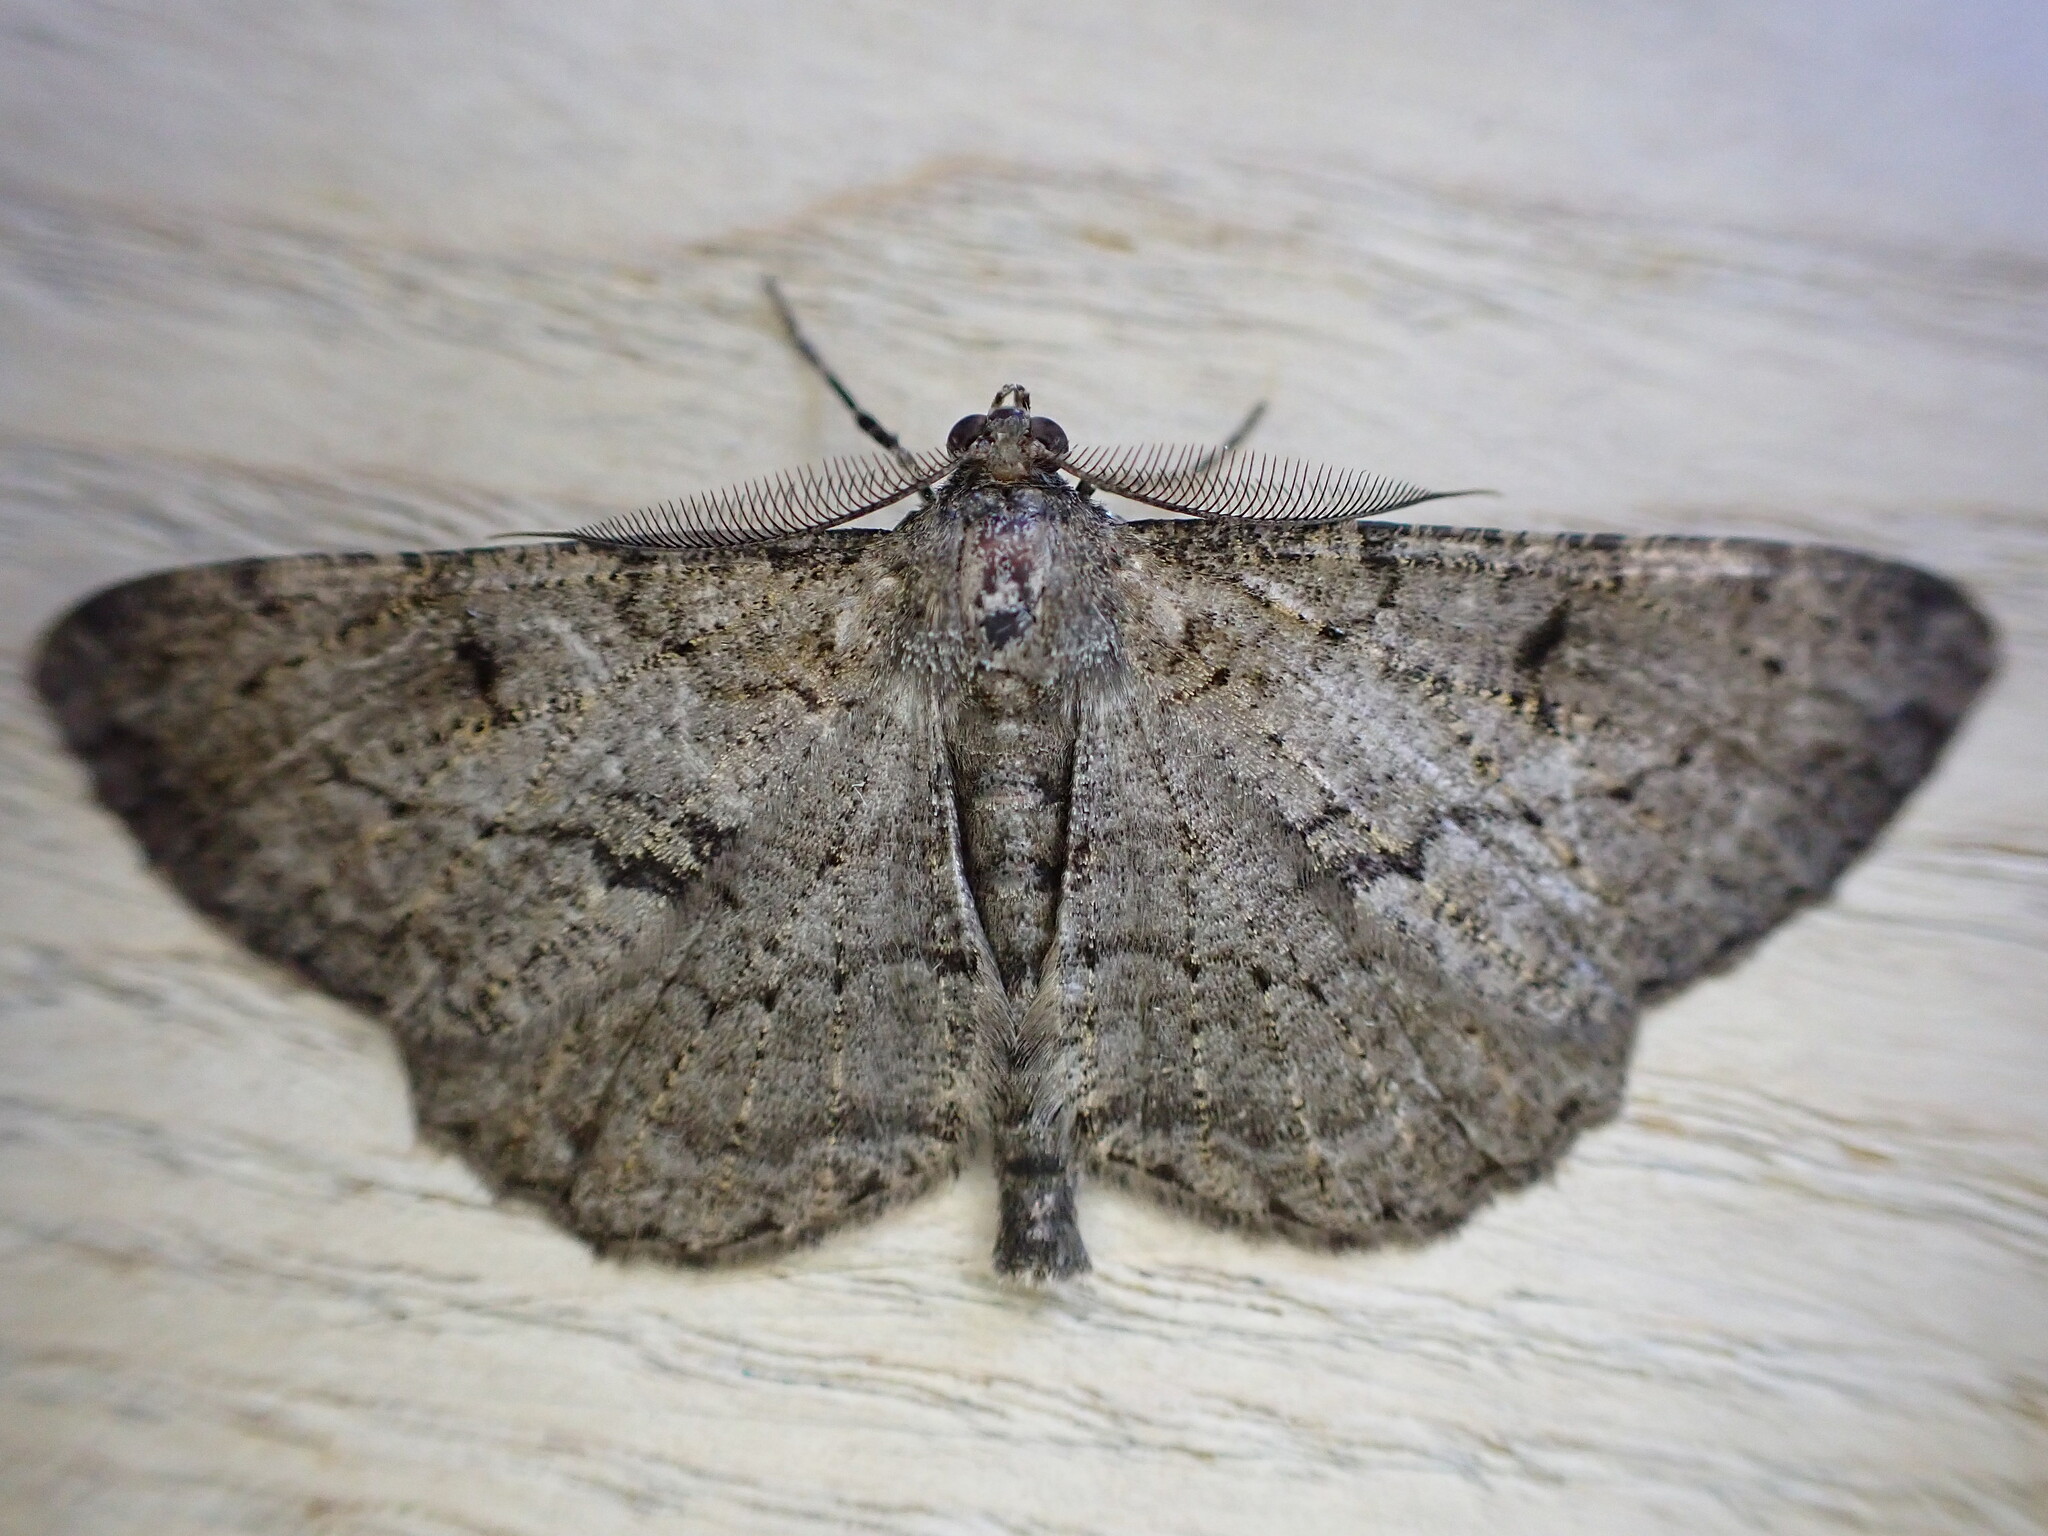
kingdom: Animalia
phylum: Arthropoda
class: Insecta
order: Lepidoptera
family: Geometridae
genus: Peribatodes
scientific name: Peribatodes rhomboidaria
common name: Willow beauty
